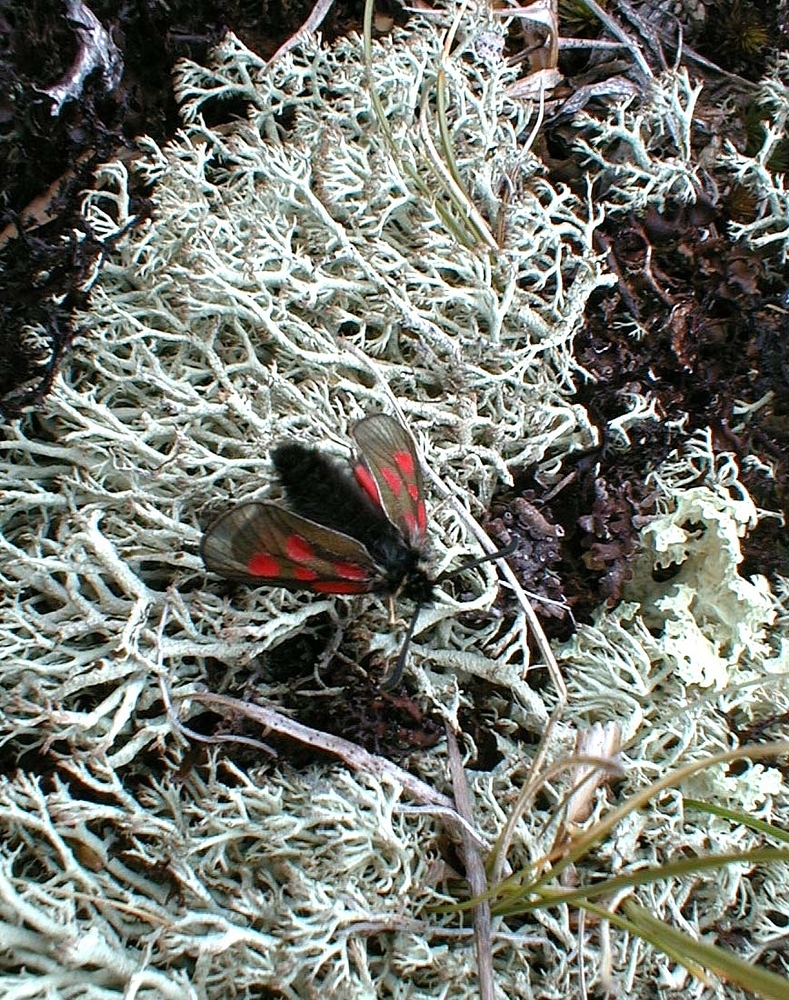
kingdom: Animalia
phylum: Arthropoda
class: Insecta
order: Lepidoptera
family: Zygaenidae
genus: Zygaena
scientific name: Zygaena exulans
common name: Scotch burnet
